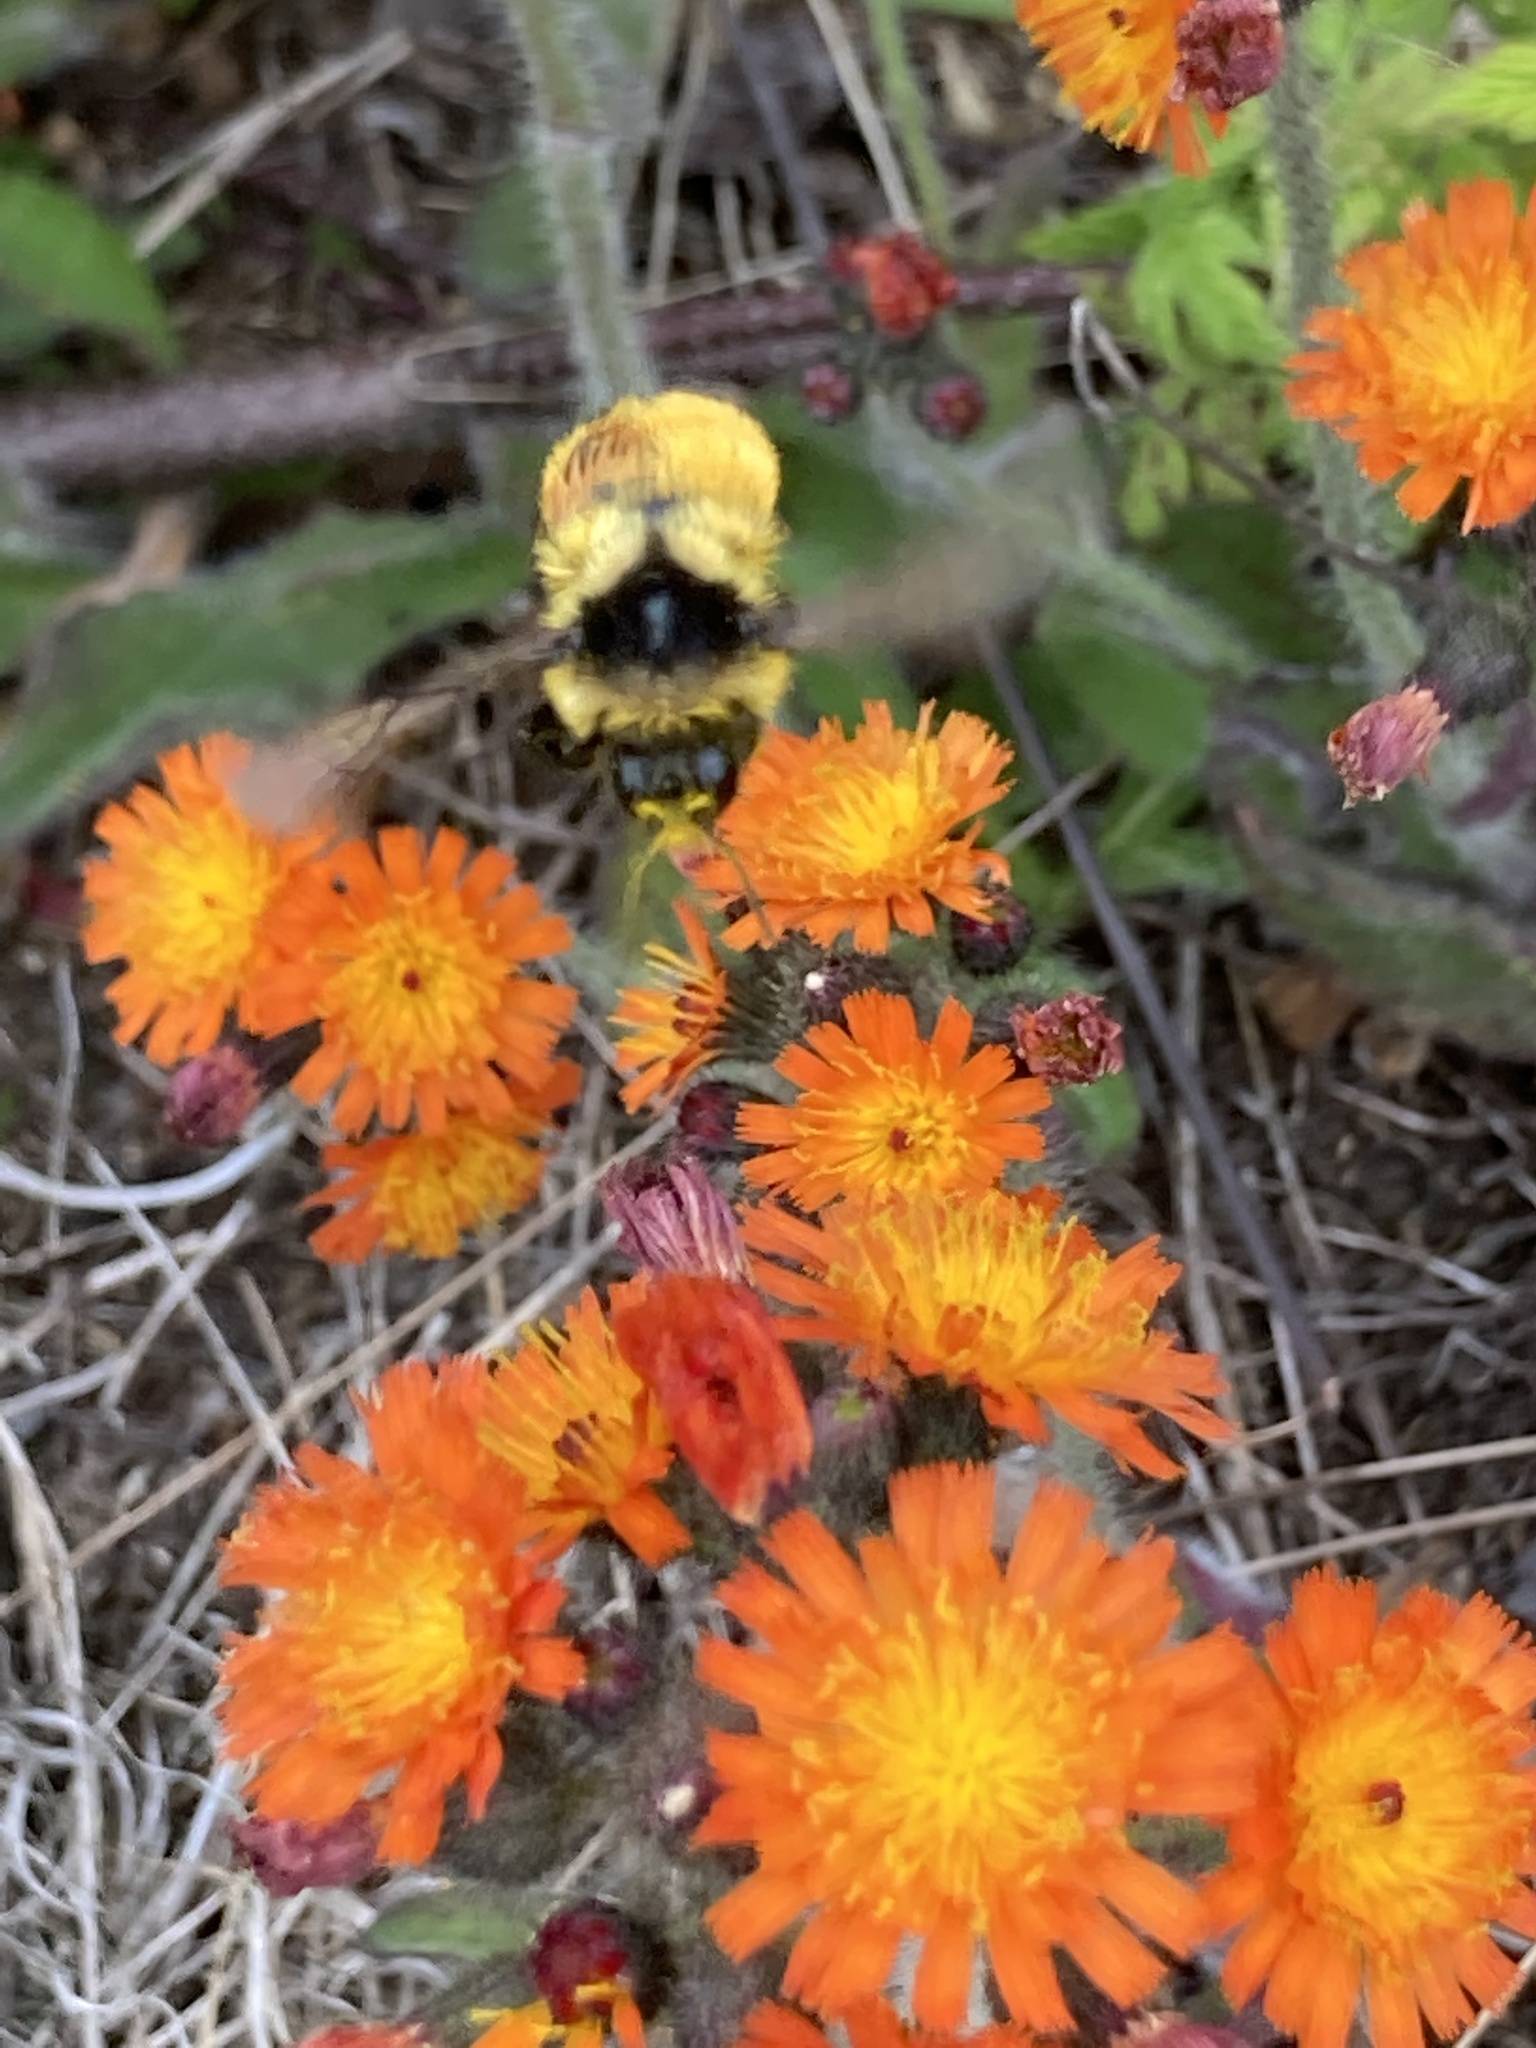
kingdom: Animalia
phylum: Arthropoda
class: Insecta
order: Hymenoptera
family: Apidae
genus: Bombus
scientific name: Bombus ternarius
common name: Tri-colored bumble bee
